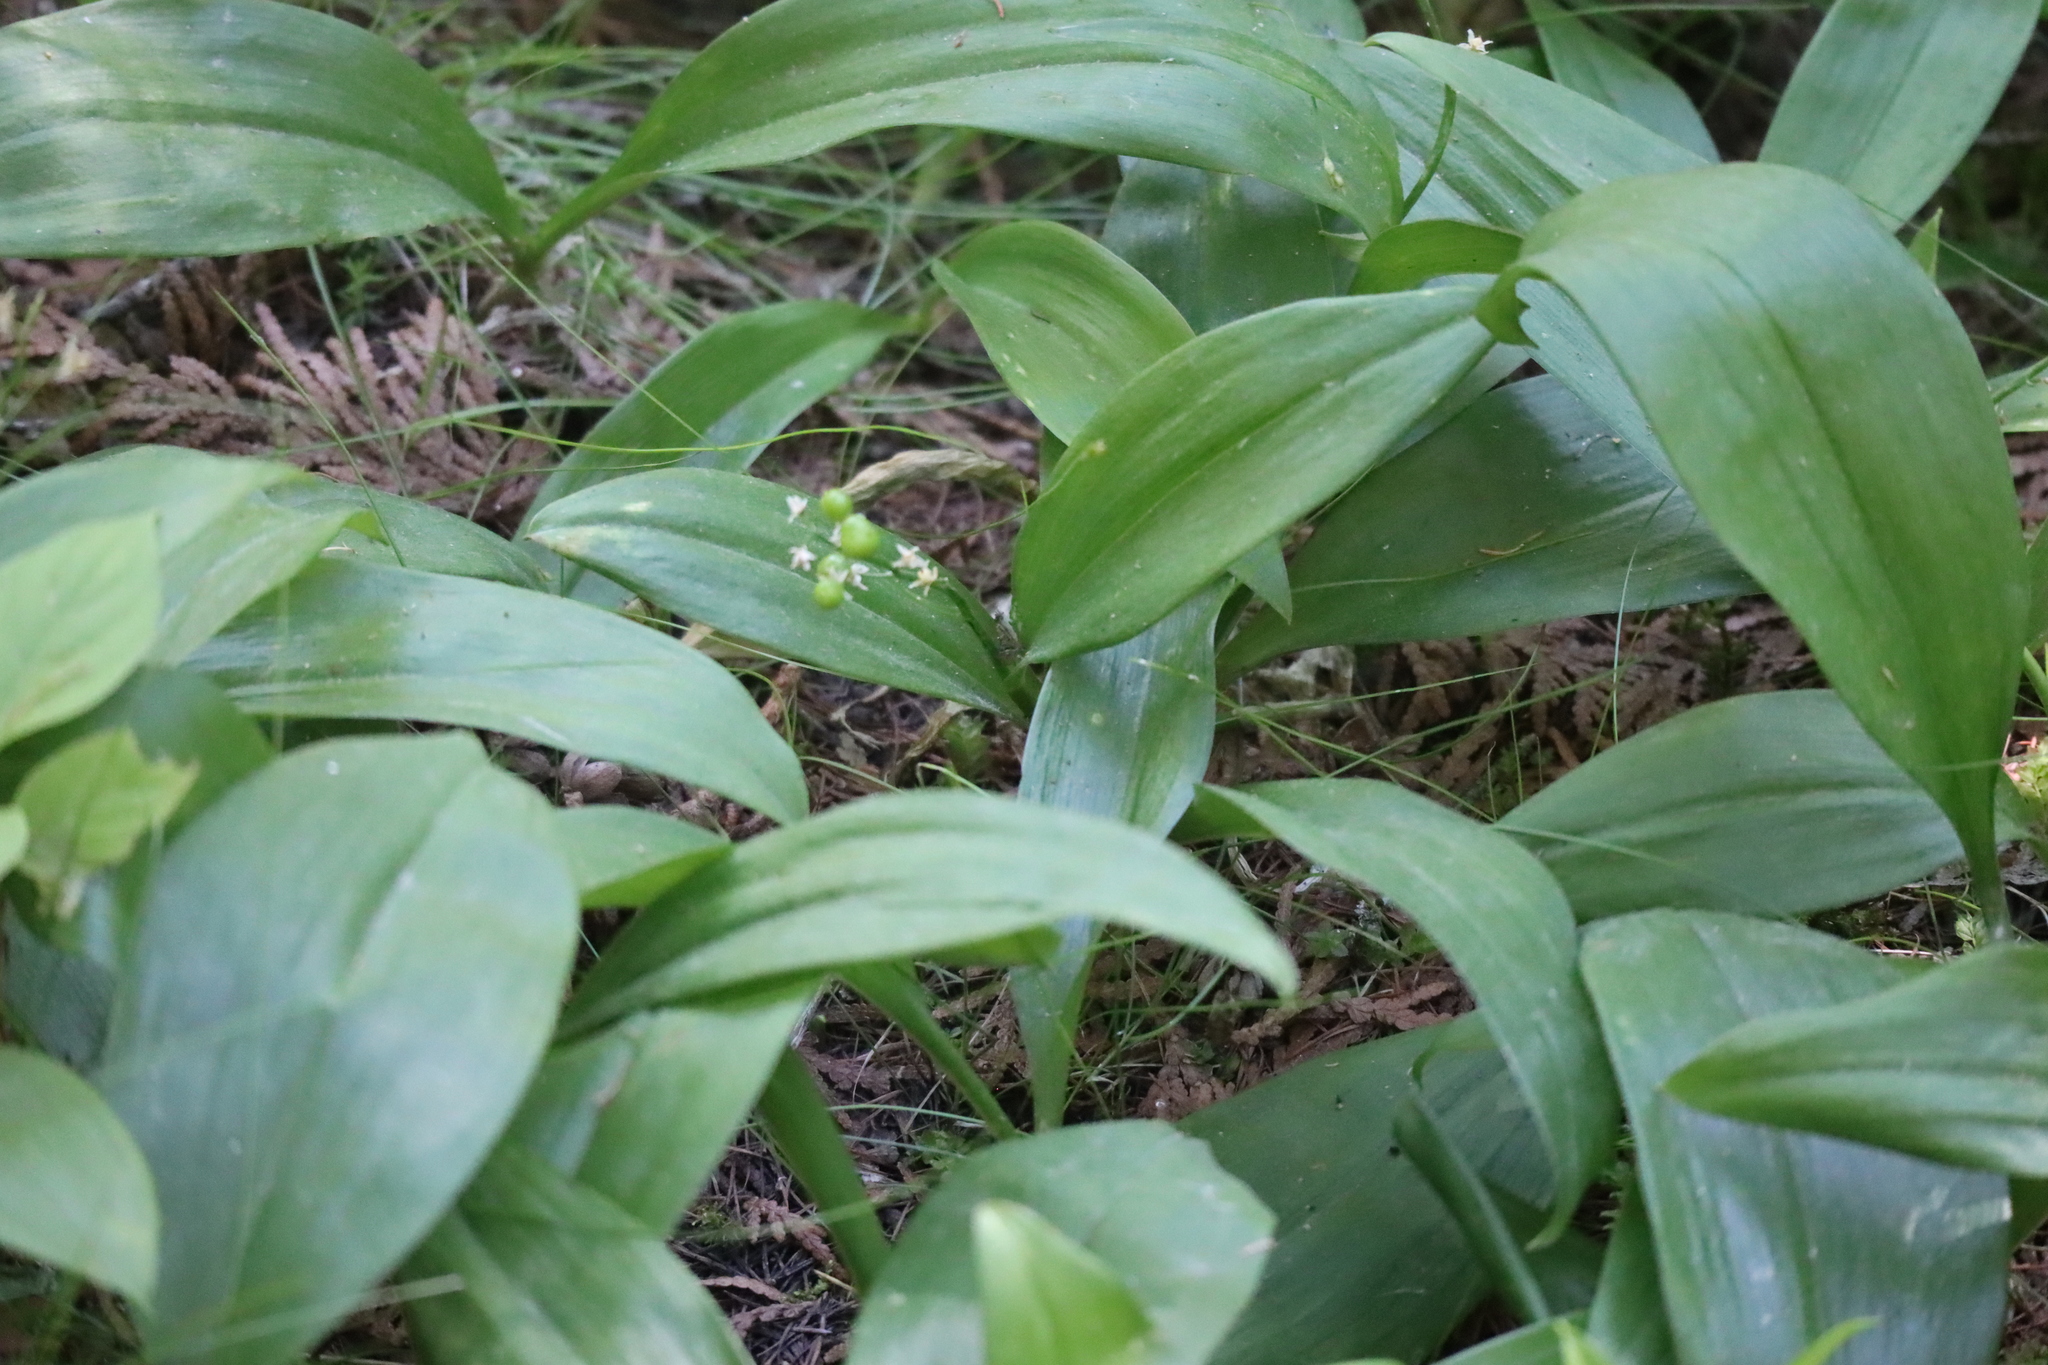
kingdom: Plantae
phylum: Tracheophyta
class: Liliopsida
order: Asparagales
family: Asparagaceae
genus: Maianthemum
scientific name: Maianthemum trifolium
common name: Swamp false solomon's seal
